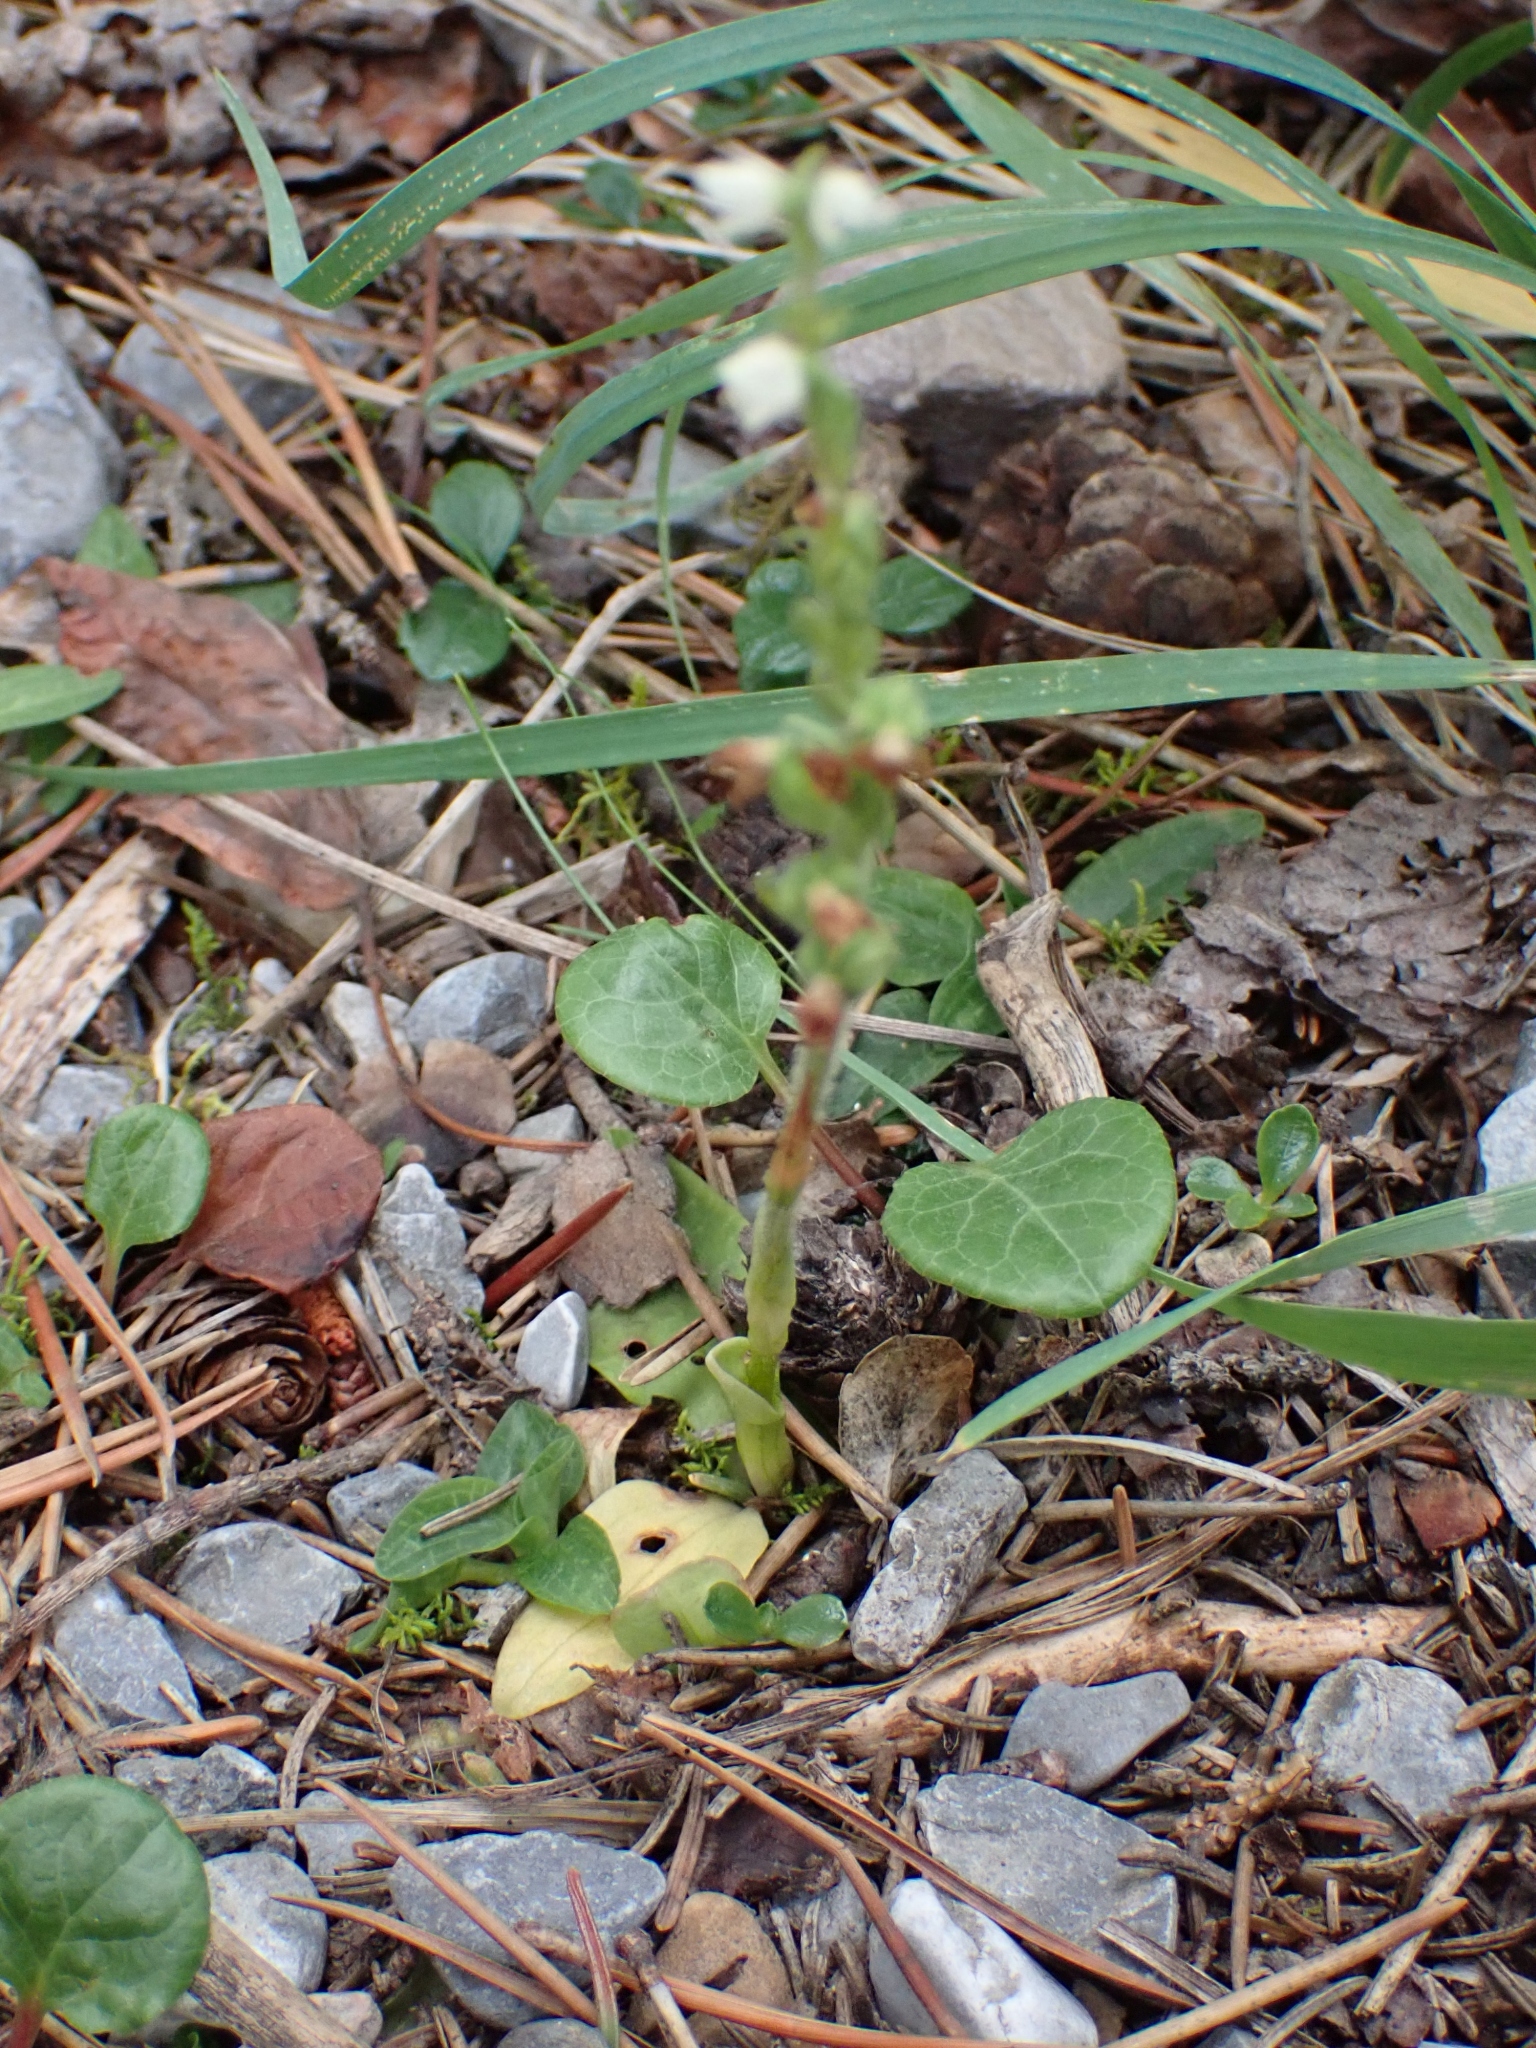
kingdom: Plantae
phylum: Tracheophyta
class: Liliopsida
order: Asparagales
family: Orchidaceae
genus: Goodyera
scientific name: Goodyera repens
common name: Creeping lady's-tresses
